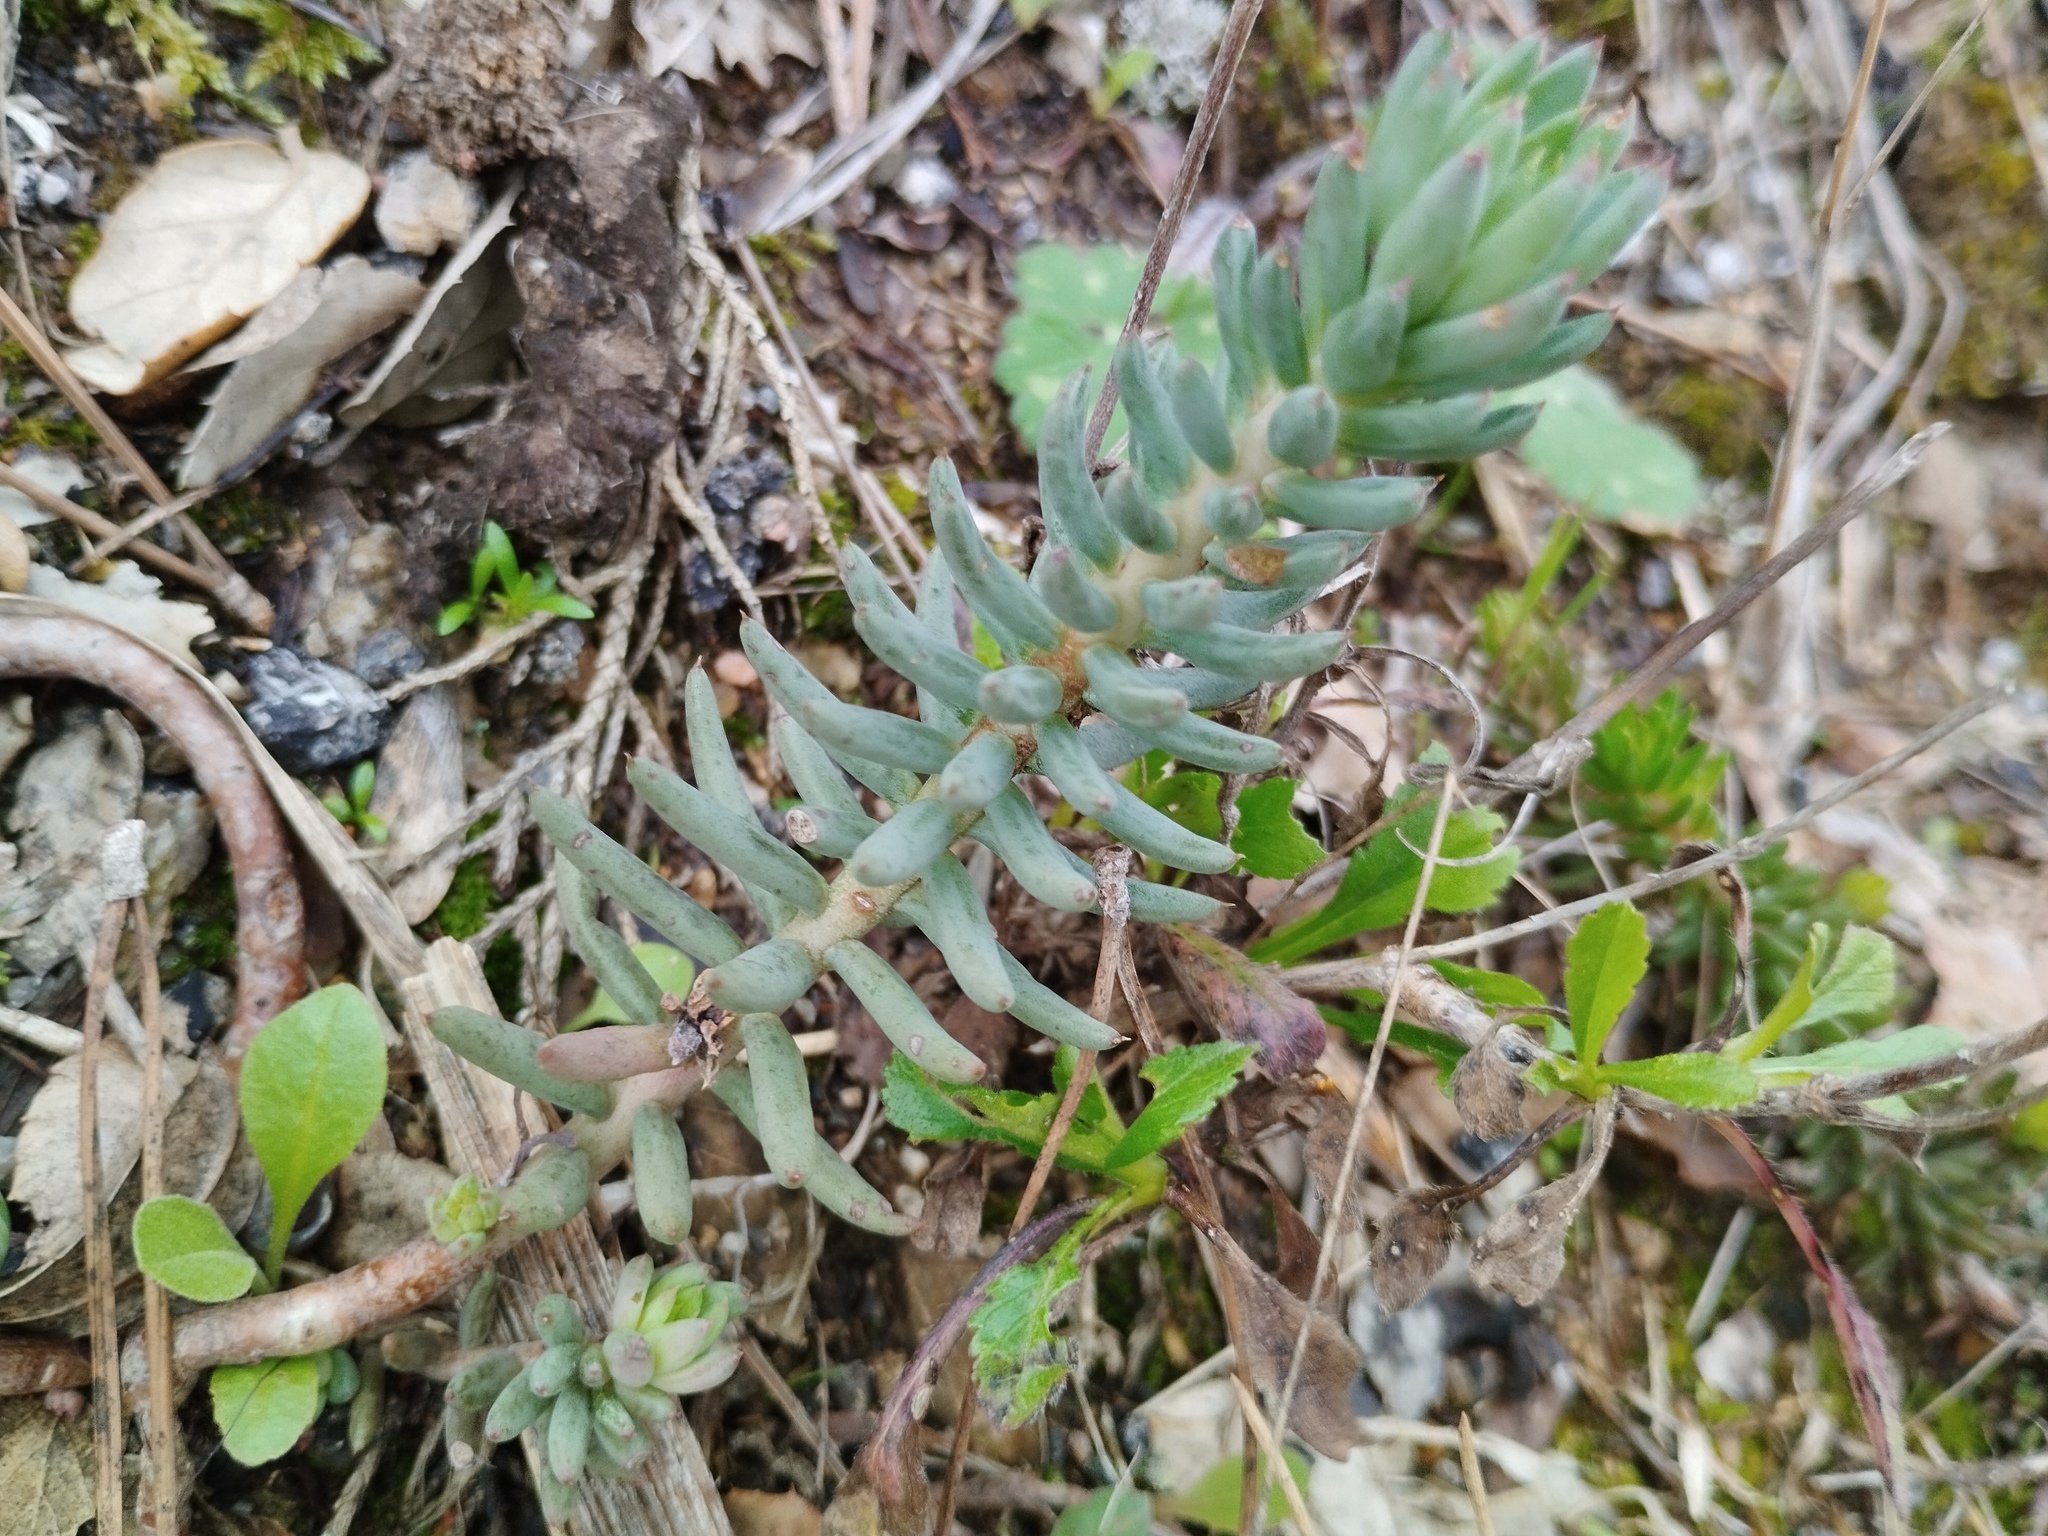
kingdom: Plantae
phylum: Tracheophyta
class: Magnoliopsida
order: Saxifragales
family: Crassulaceae
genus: Petrosedum
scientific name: Petrosedum sediforme
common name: Pale stonecrop
